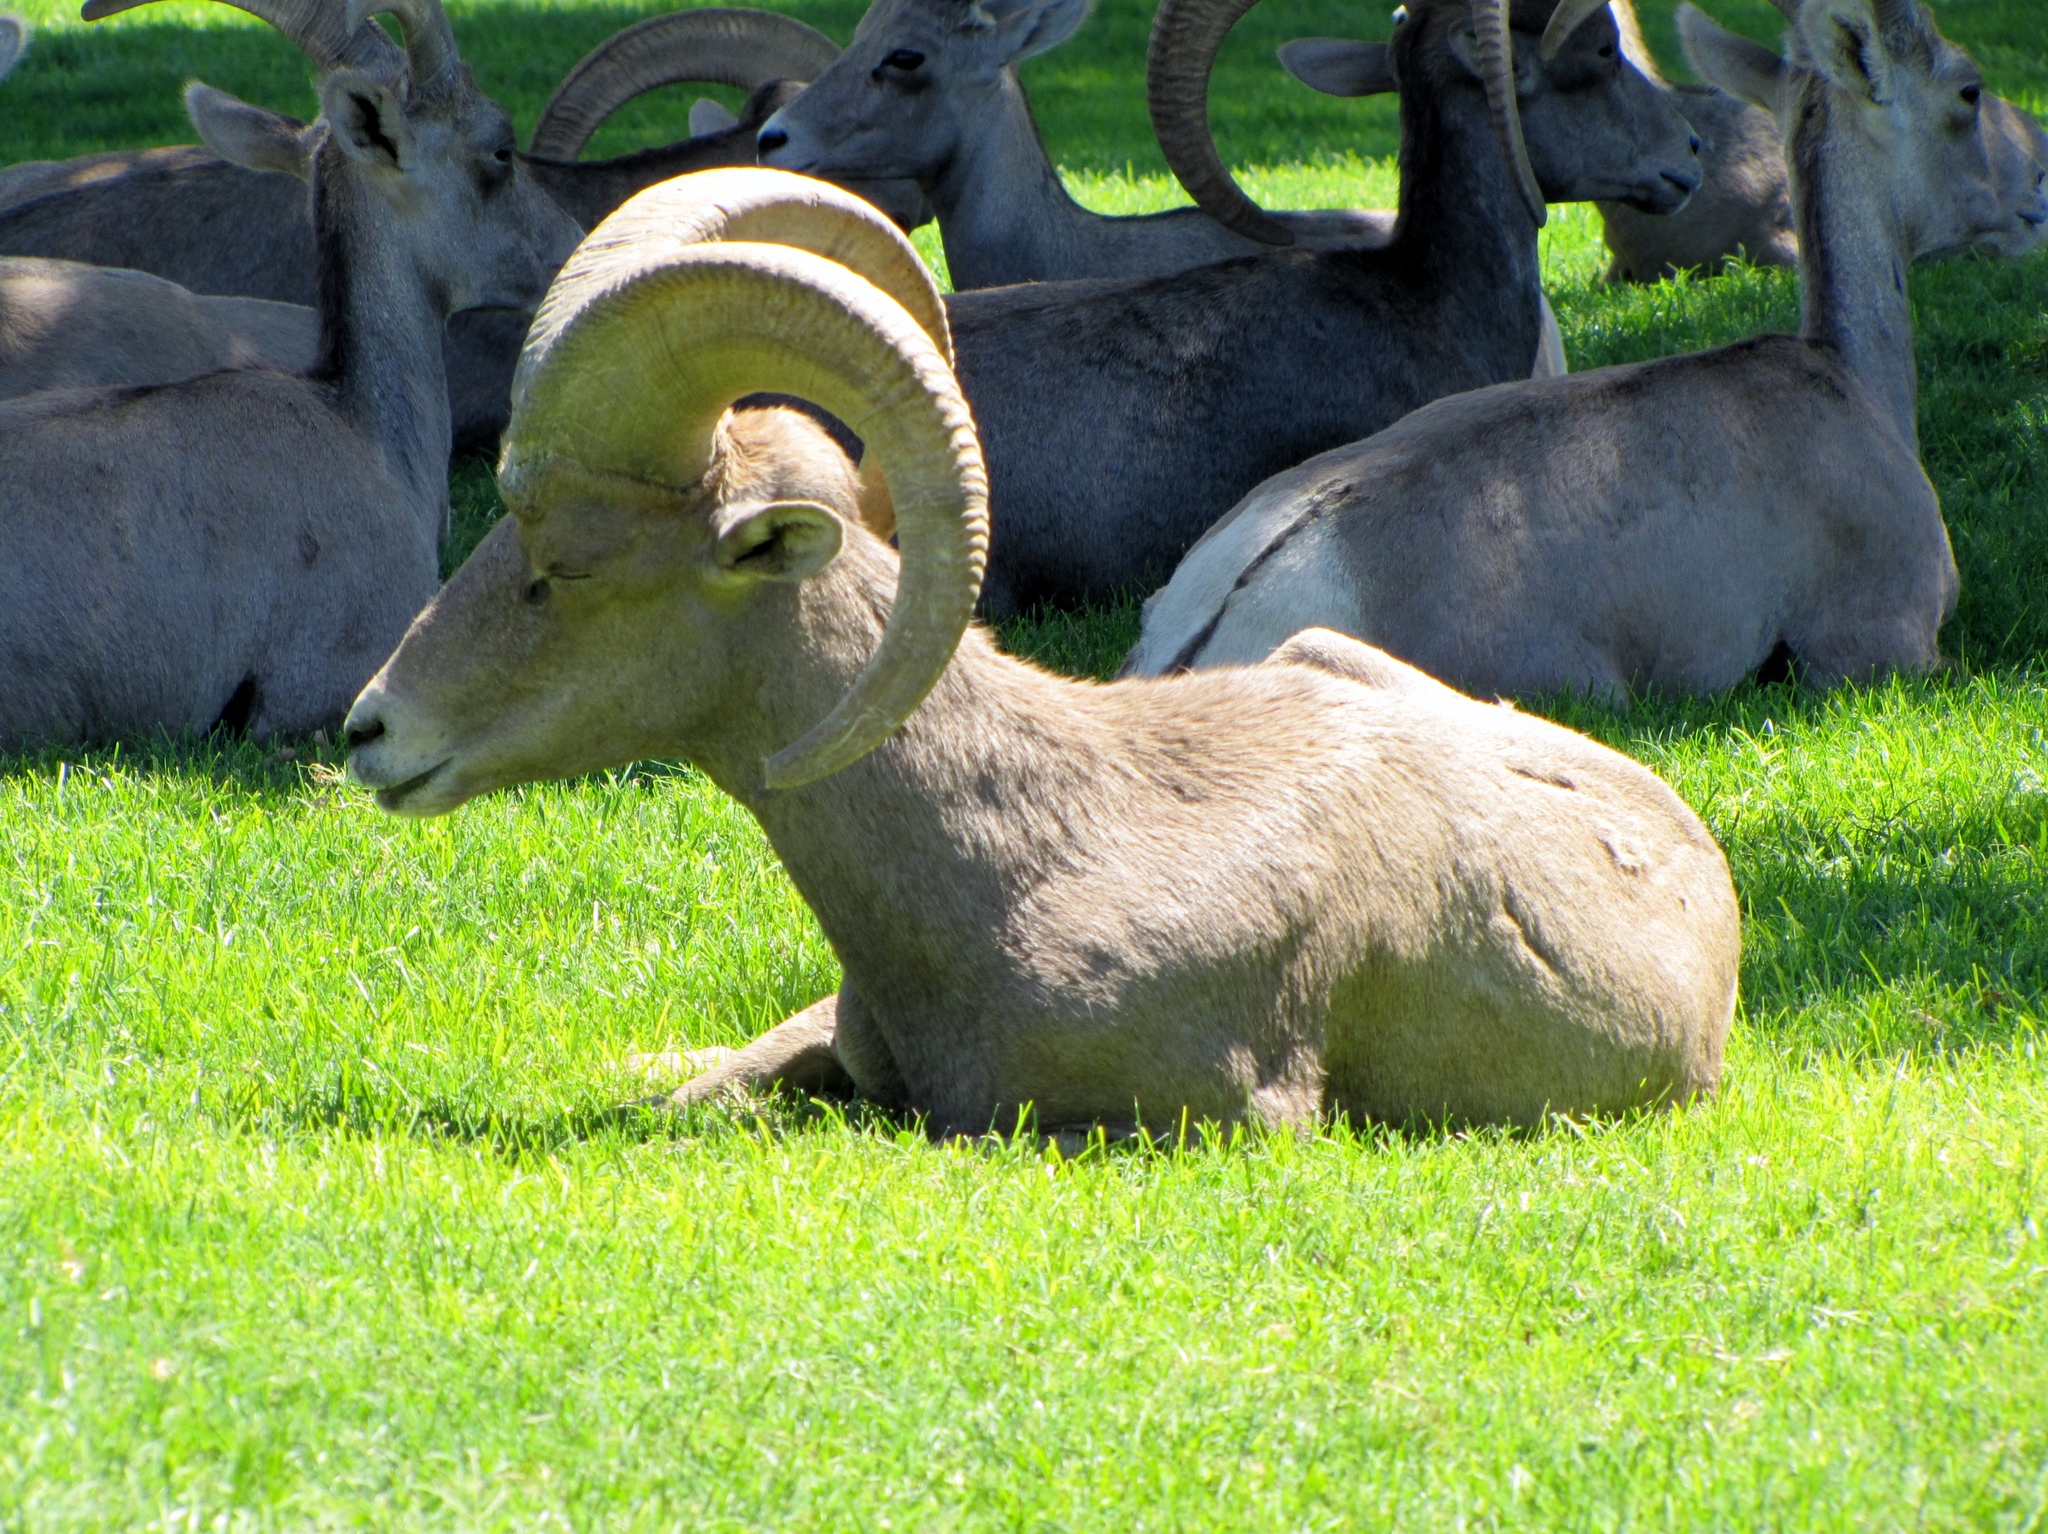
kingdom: Animalia
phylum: Chordata
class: Mammalia
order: Artiodactyla
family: Bovidae
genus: Ovis
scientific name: Ovis canadensis
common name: Bighorn sheep
